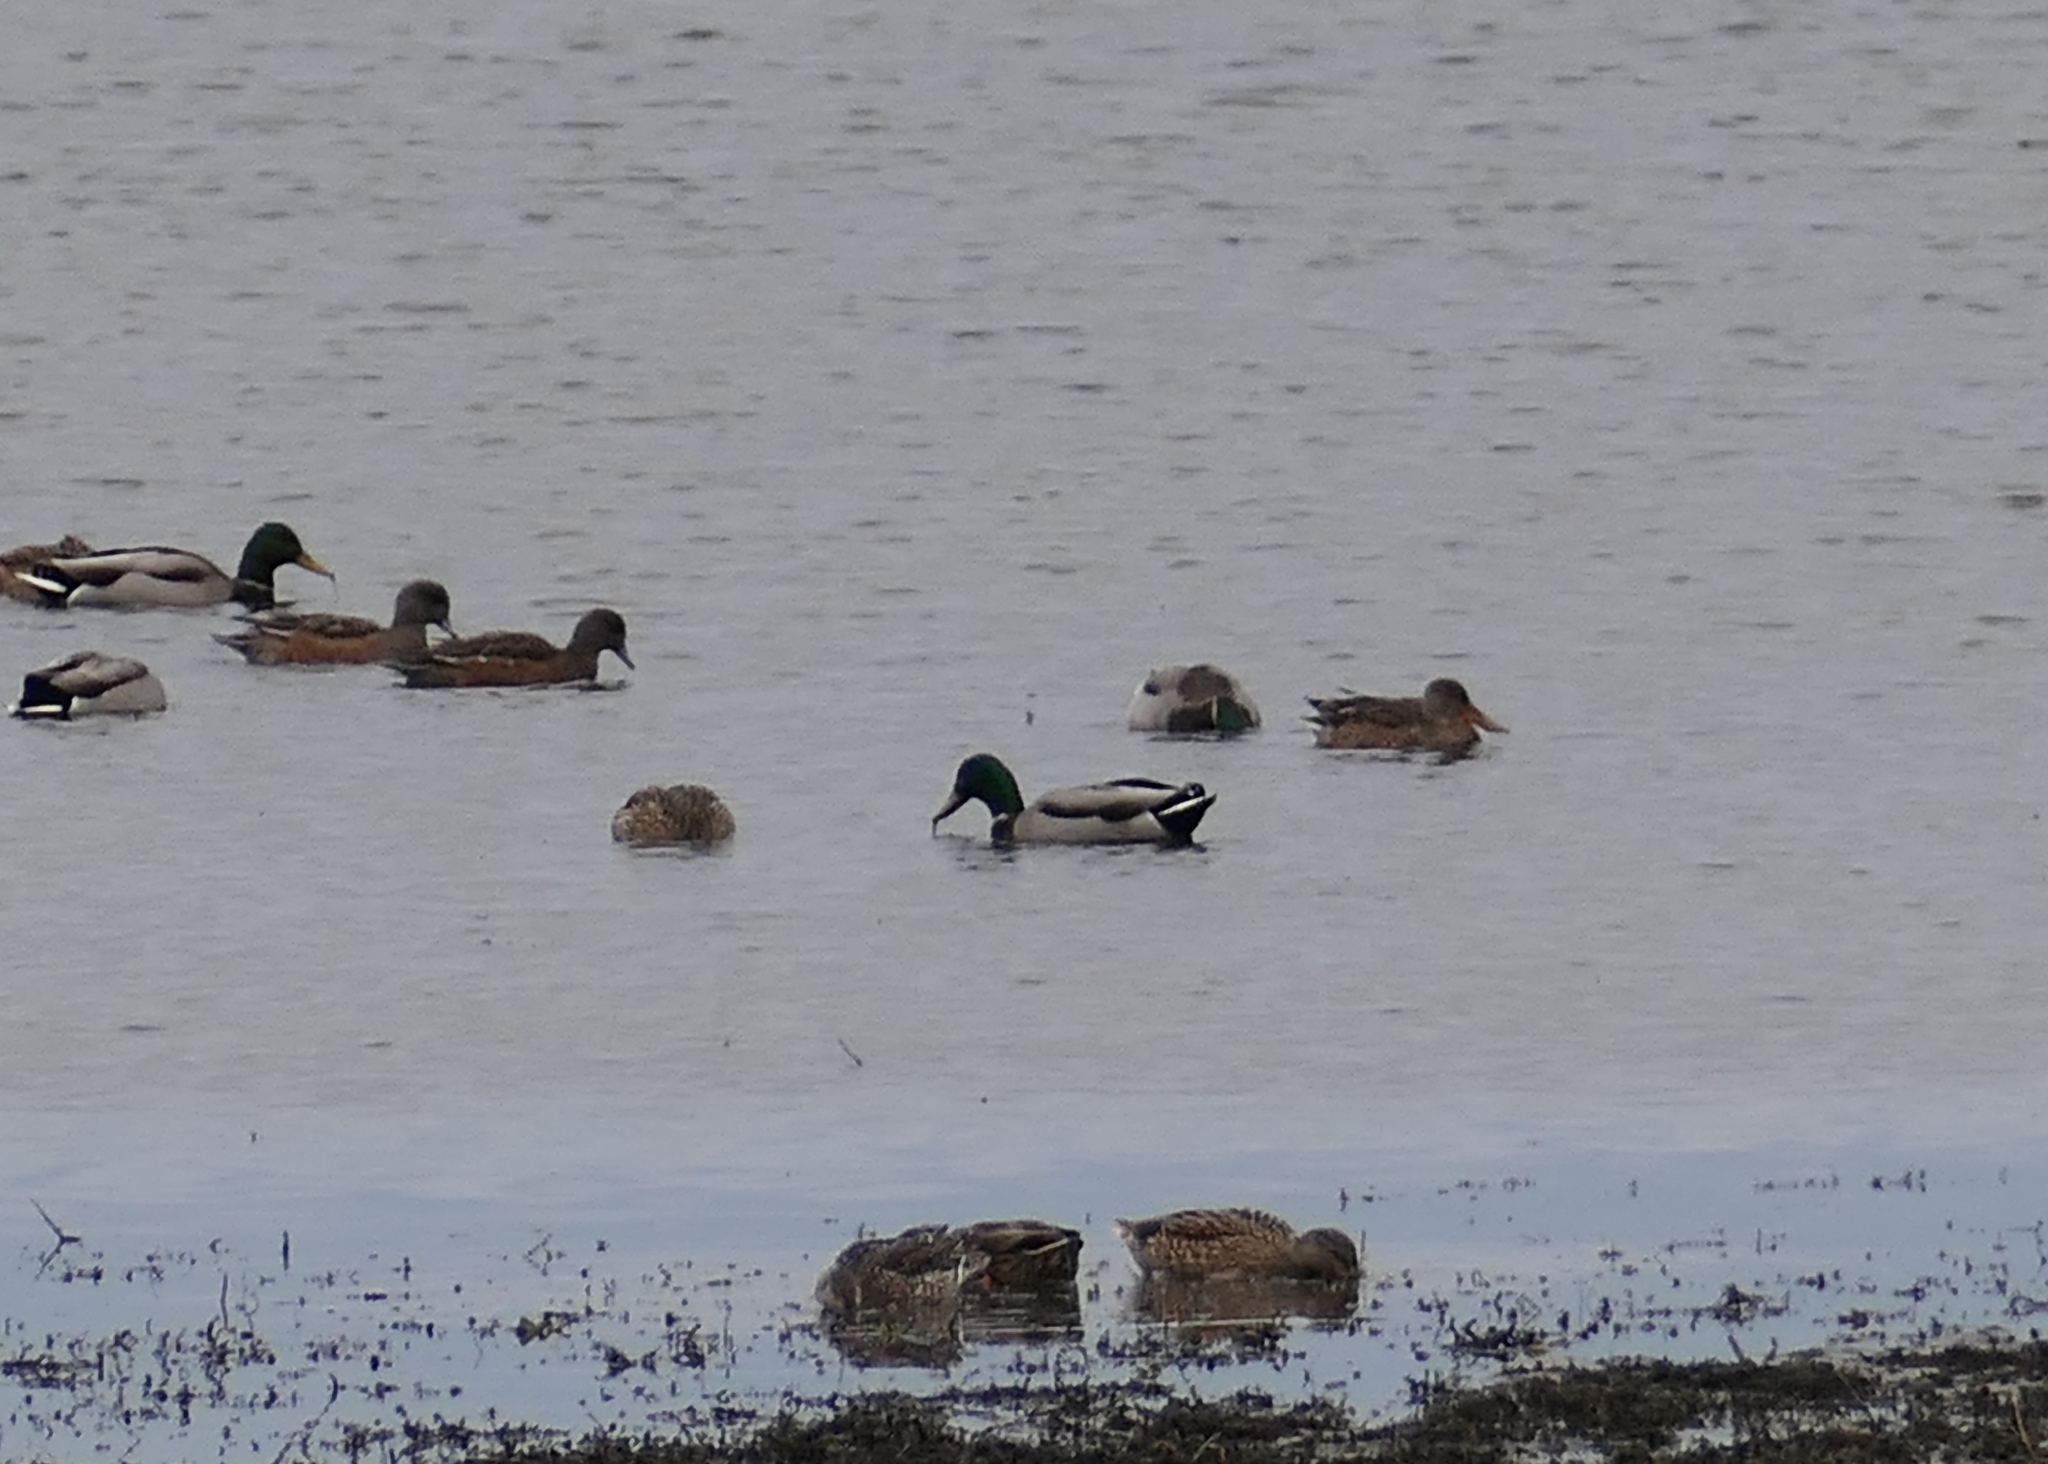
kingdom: Animalia
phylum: Chordata
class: Aves
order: Anseriformes
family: Anatidae
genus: Mareca
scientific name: Mareca americana
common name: American wigeon
